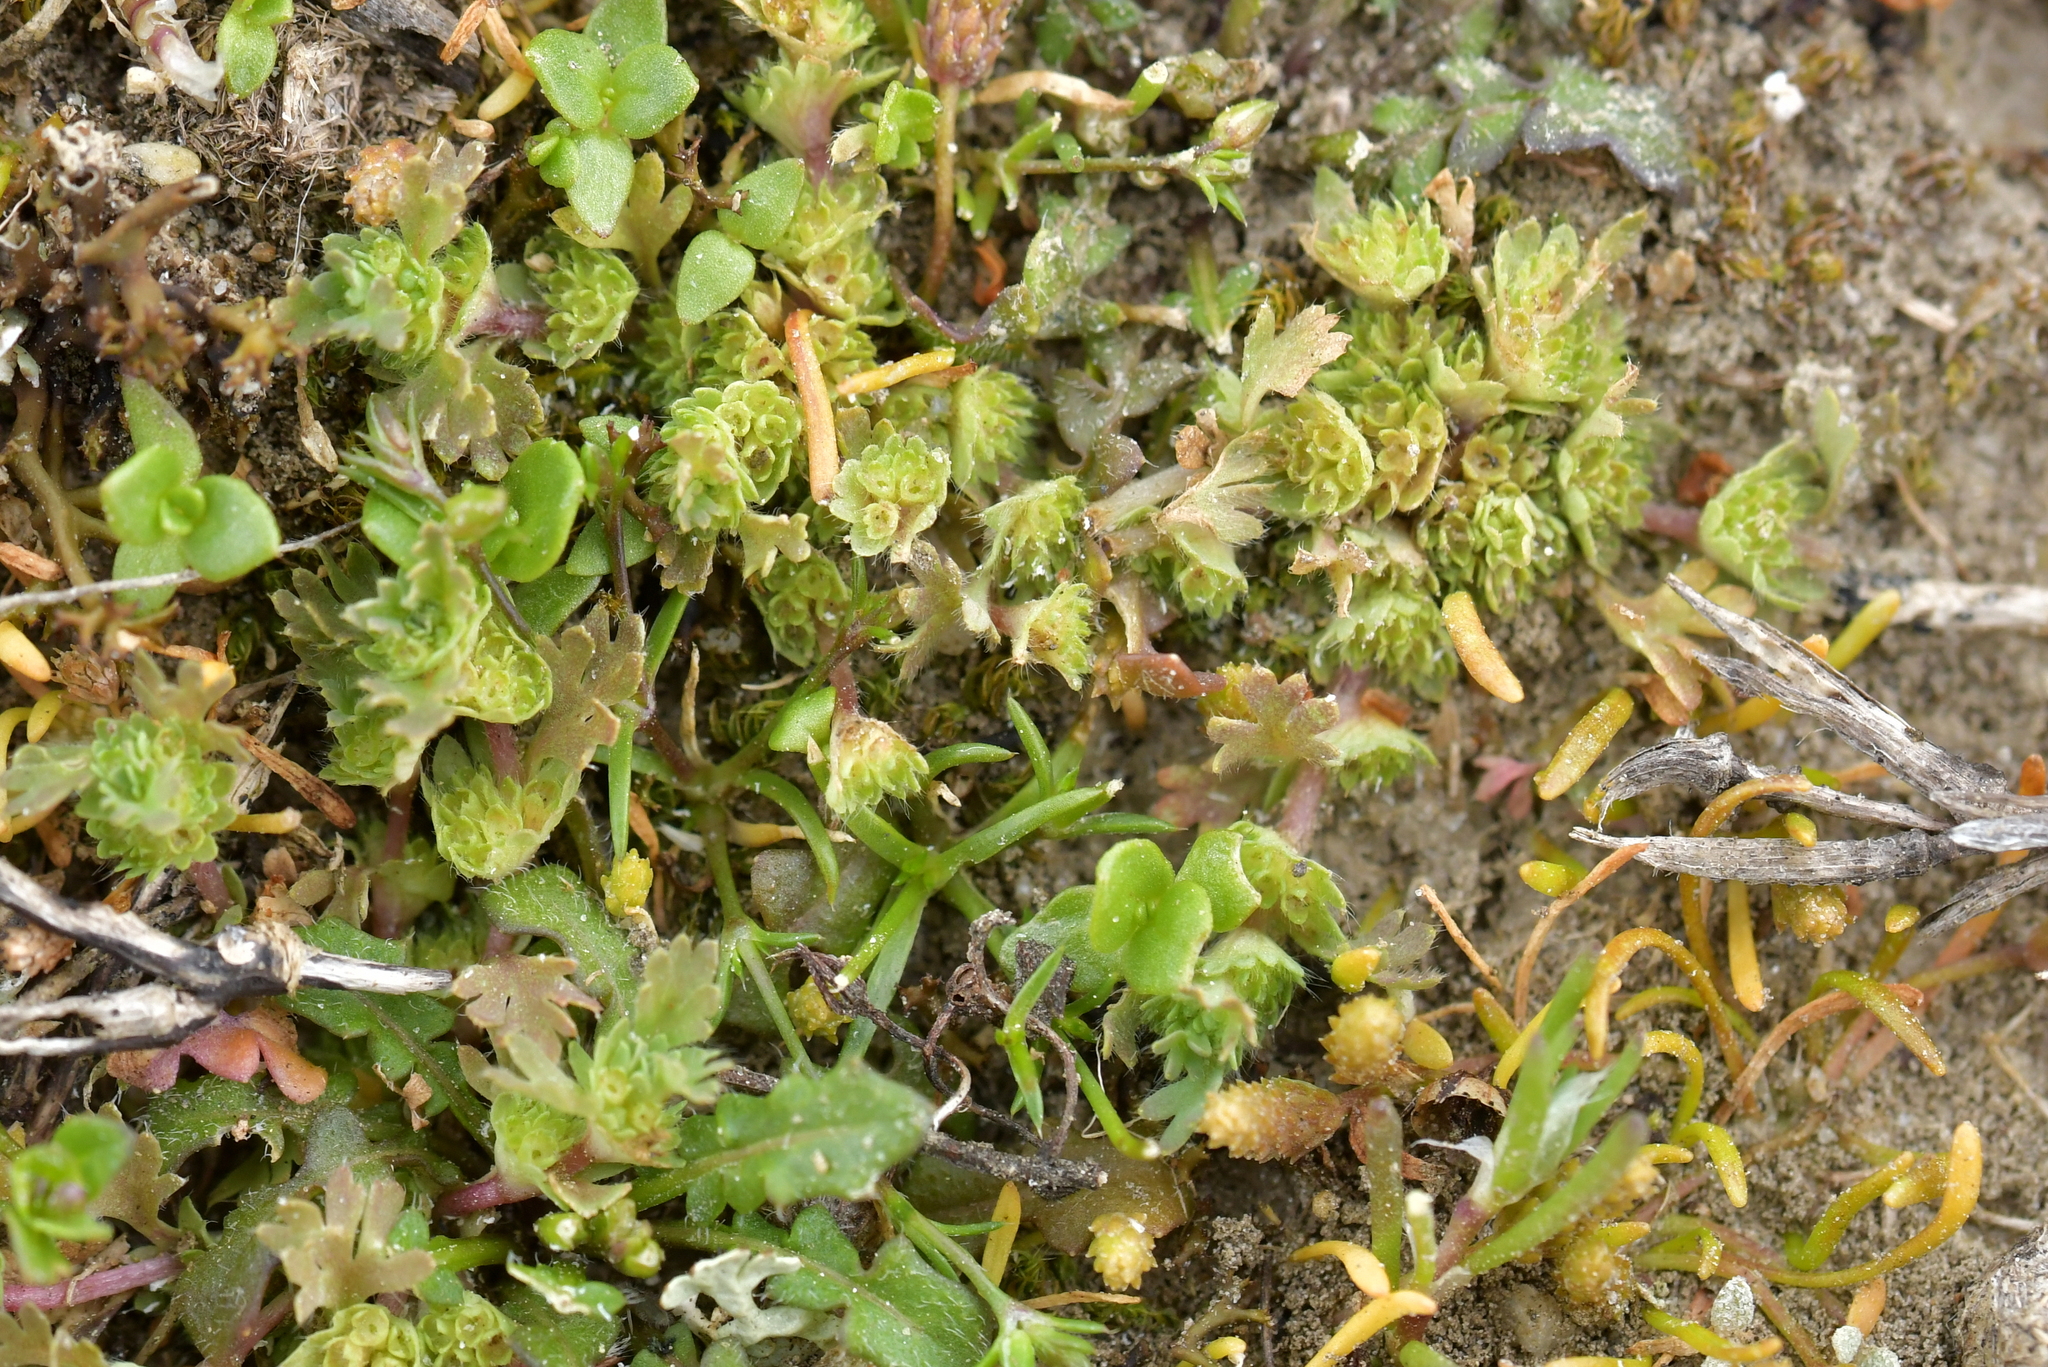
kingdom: Plantae
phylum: Tracheophyta
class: Magnoliopsida
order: Rosales
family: Rosaceae
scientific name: Rosaceae
